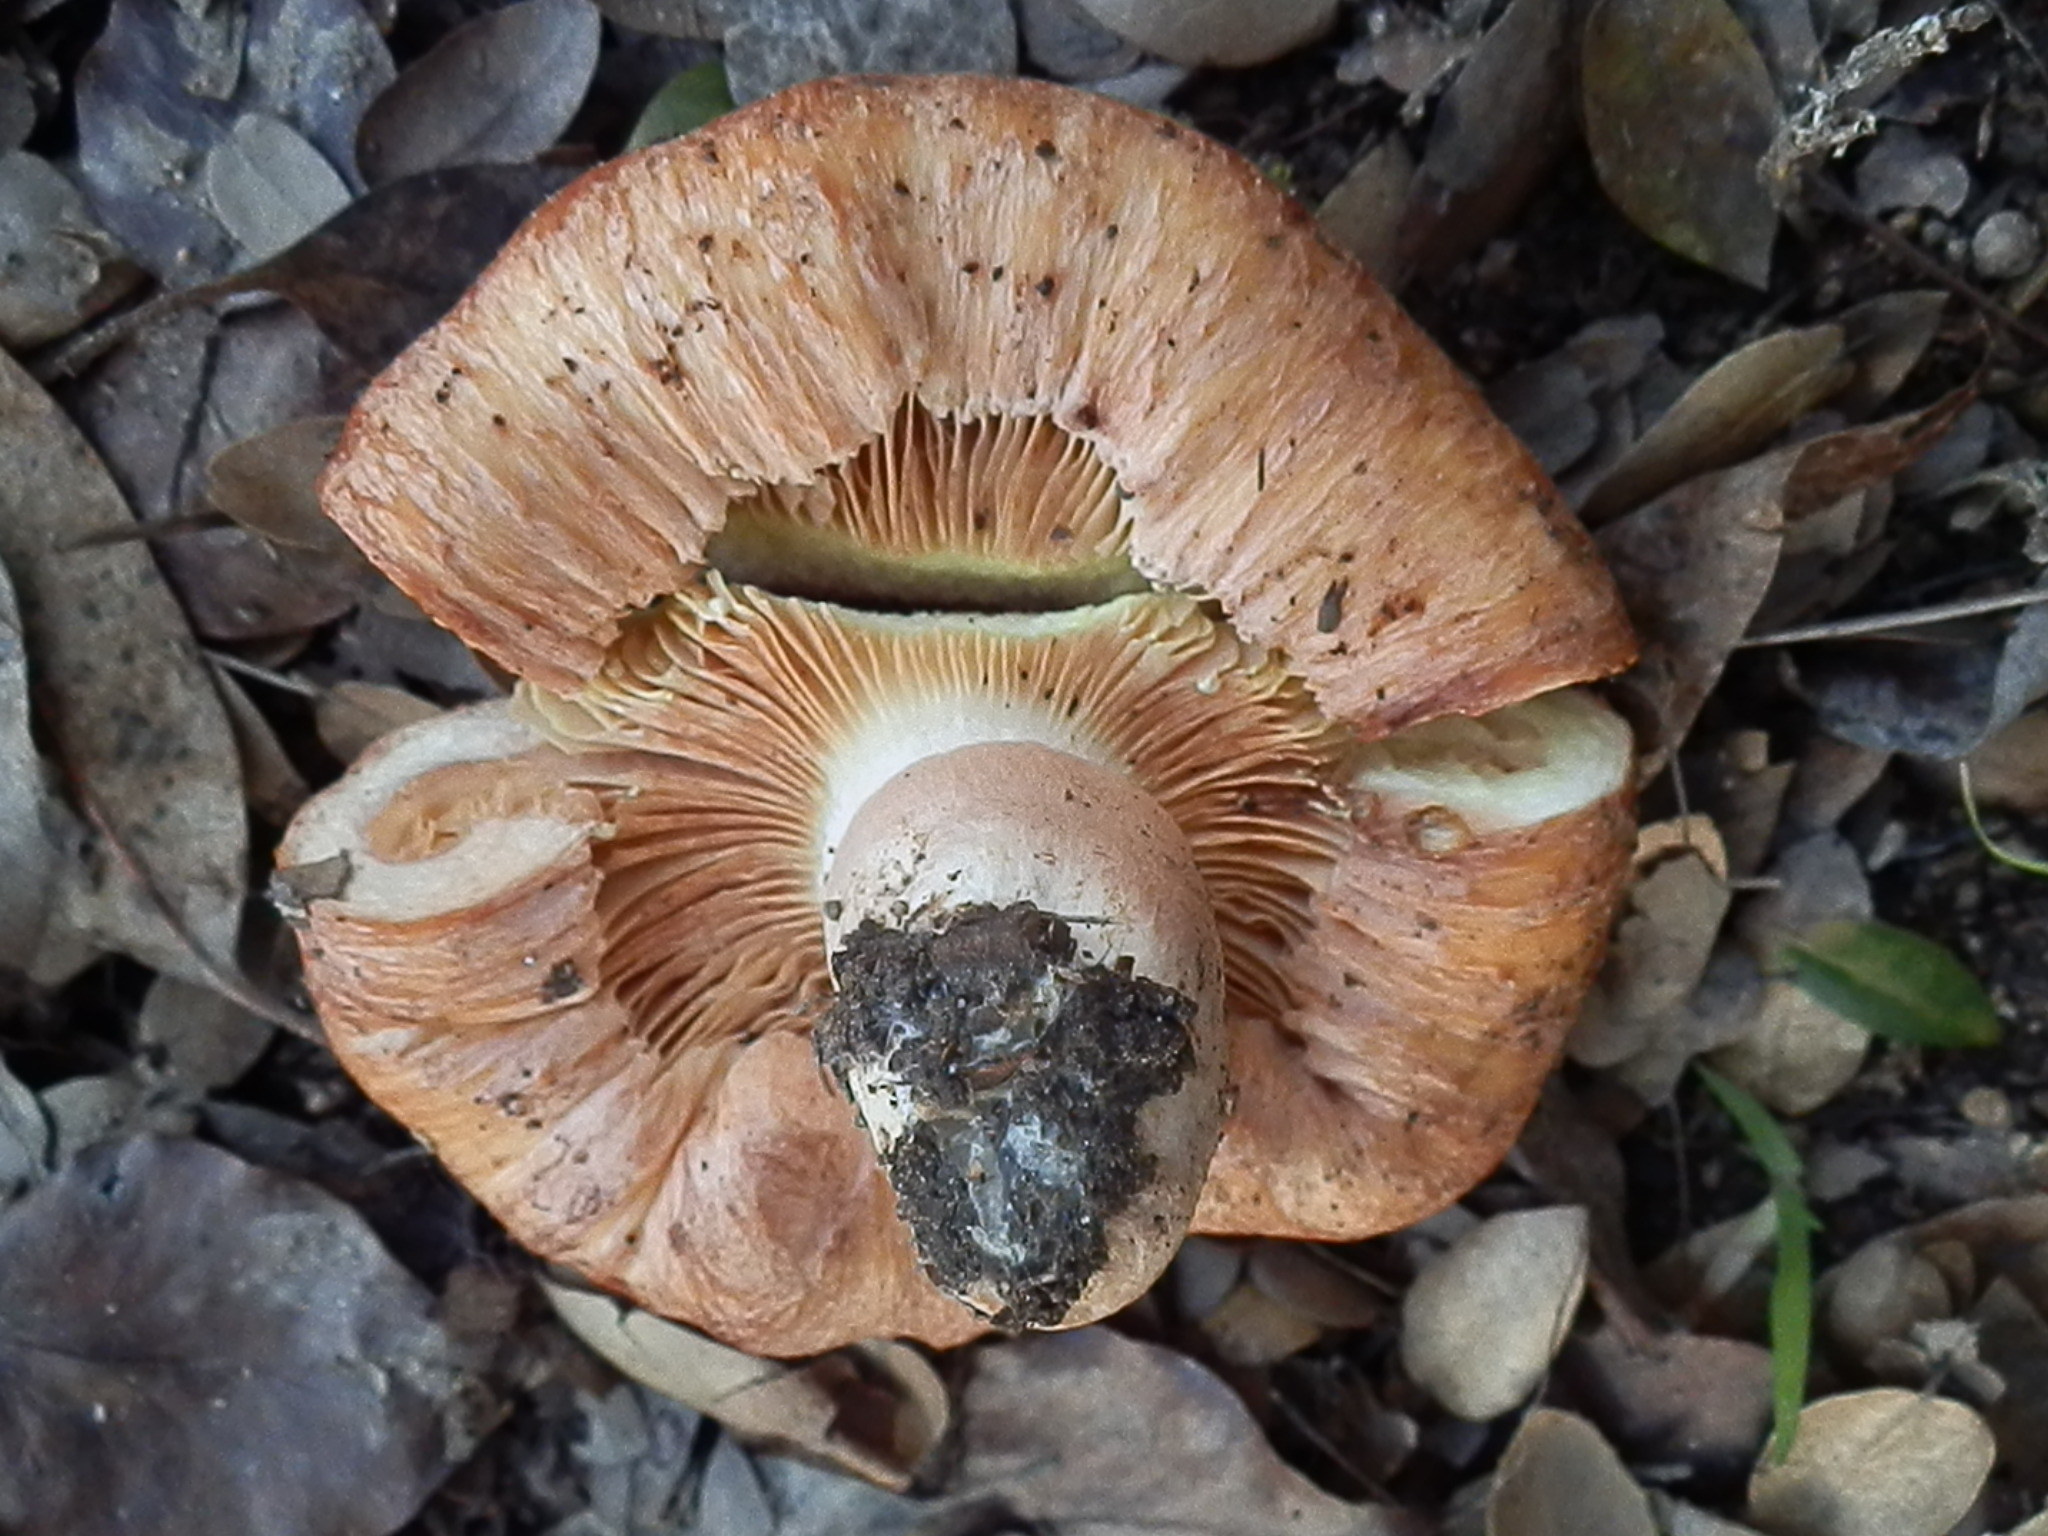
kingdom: Fungi
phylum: Basidiomycota
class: Agaricomycetes
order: Russulales
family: Russulaceae
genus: Lactarius
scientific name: Lactarius xanthogalactus
